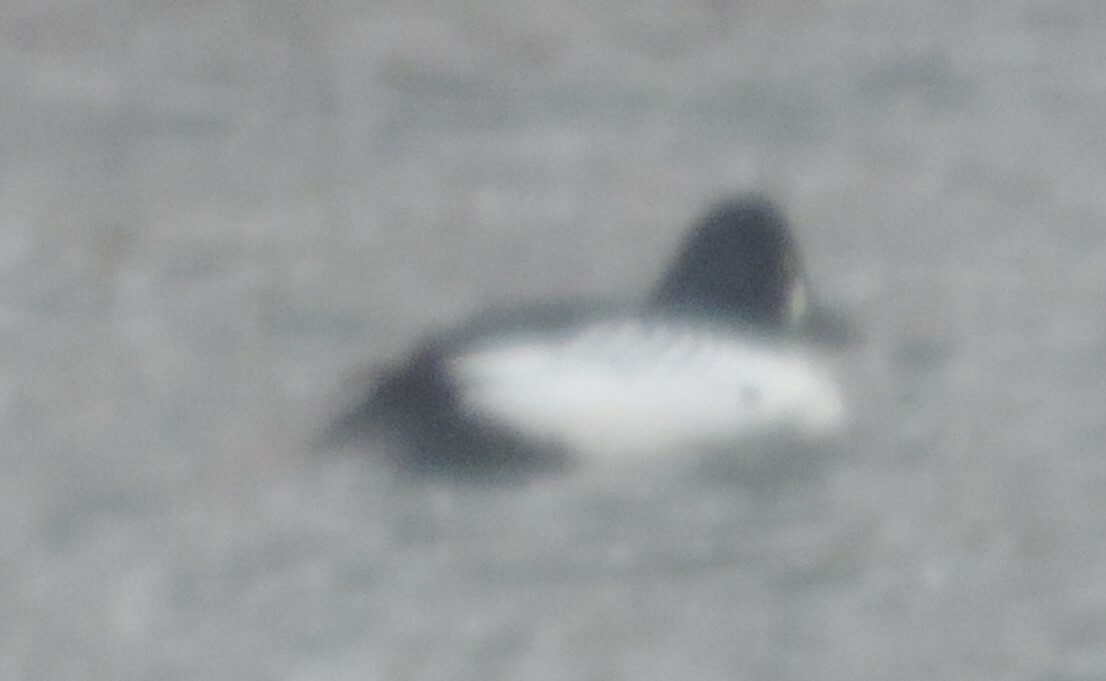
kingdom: Animalia
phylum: Chordata
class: Aves
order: Anseriformes
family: Anatidae
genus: Bucephala
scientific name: Bucephala clangula
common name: Common goldeneye
